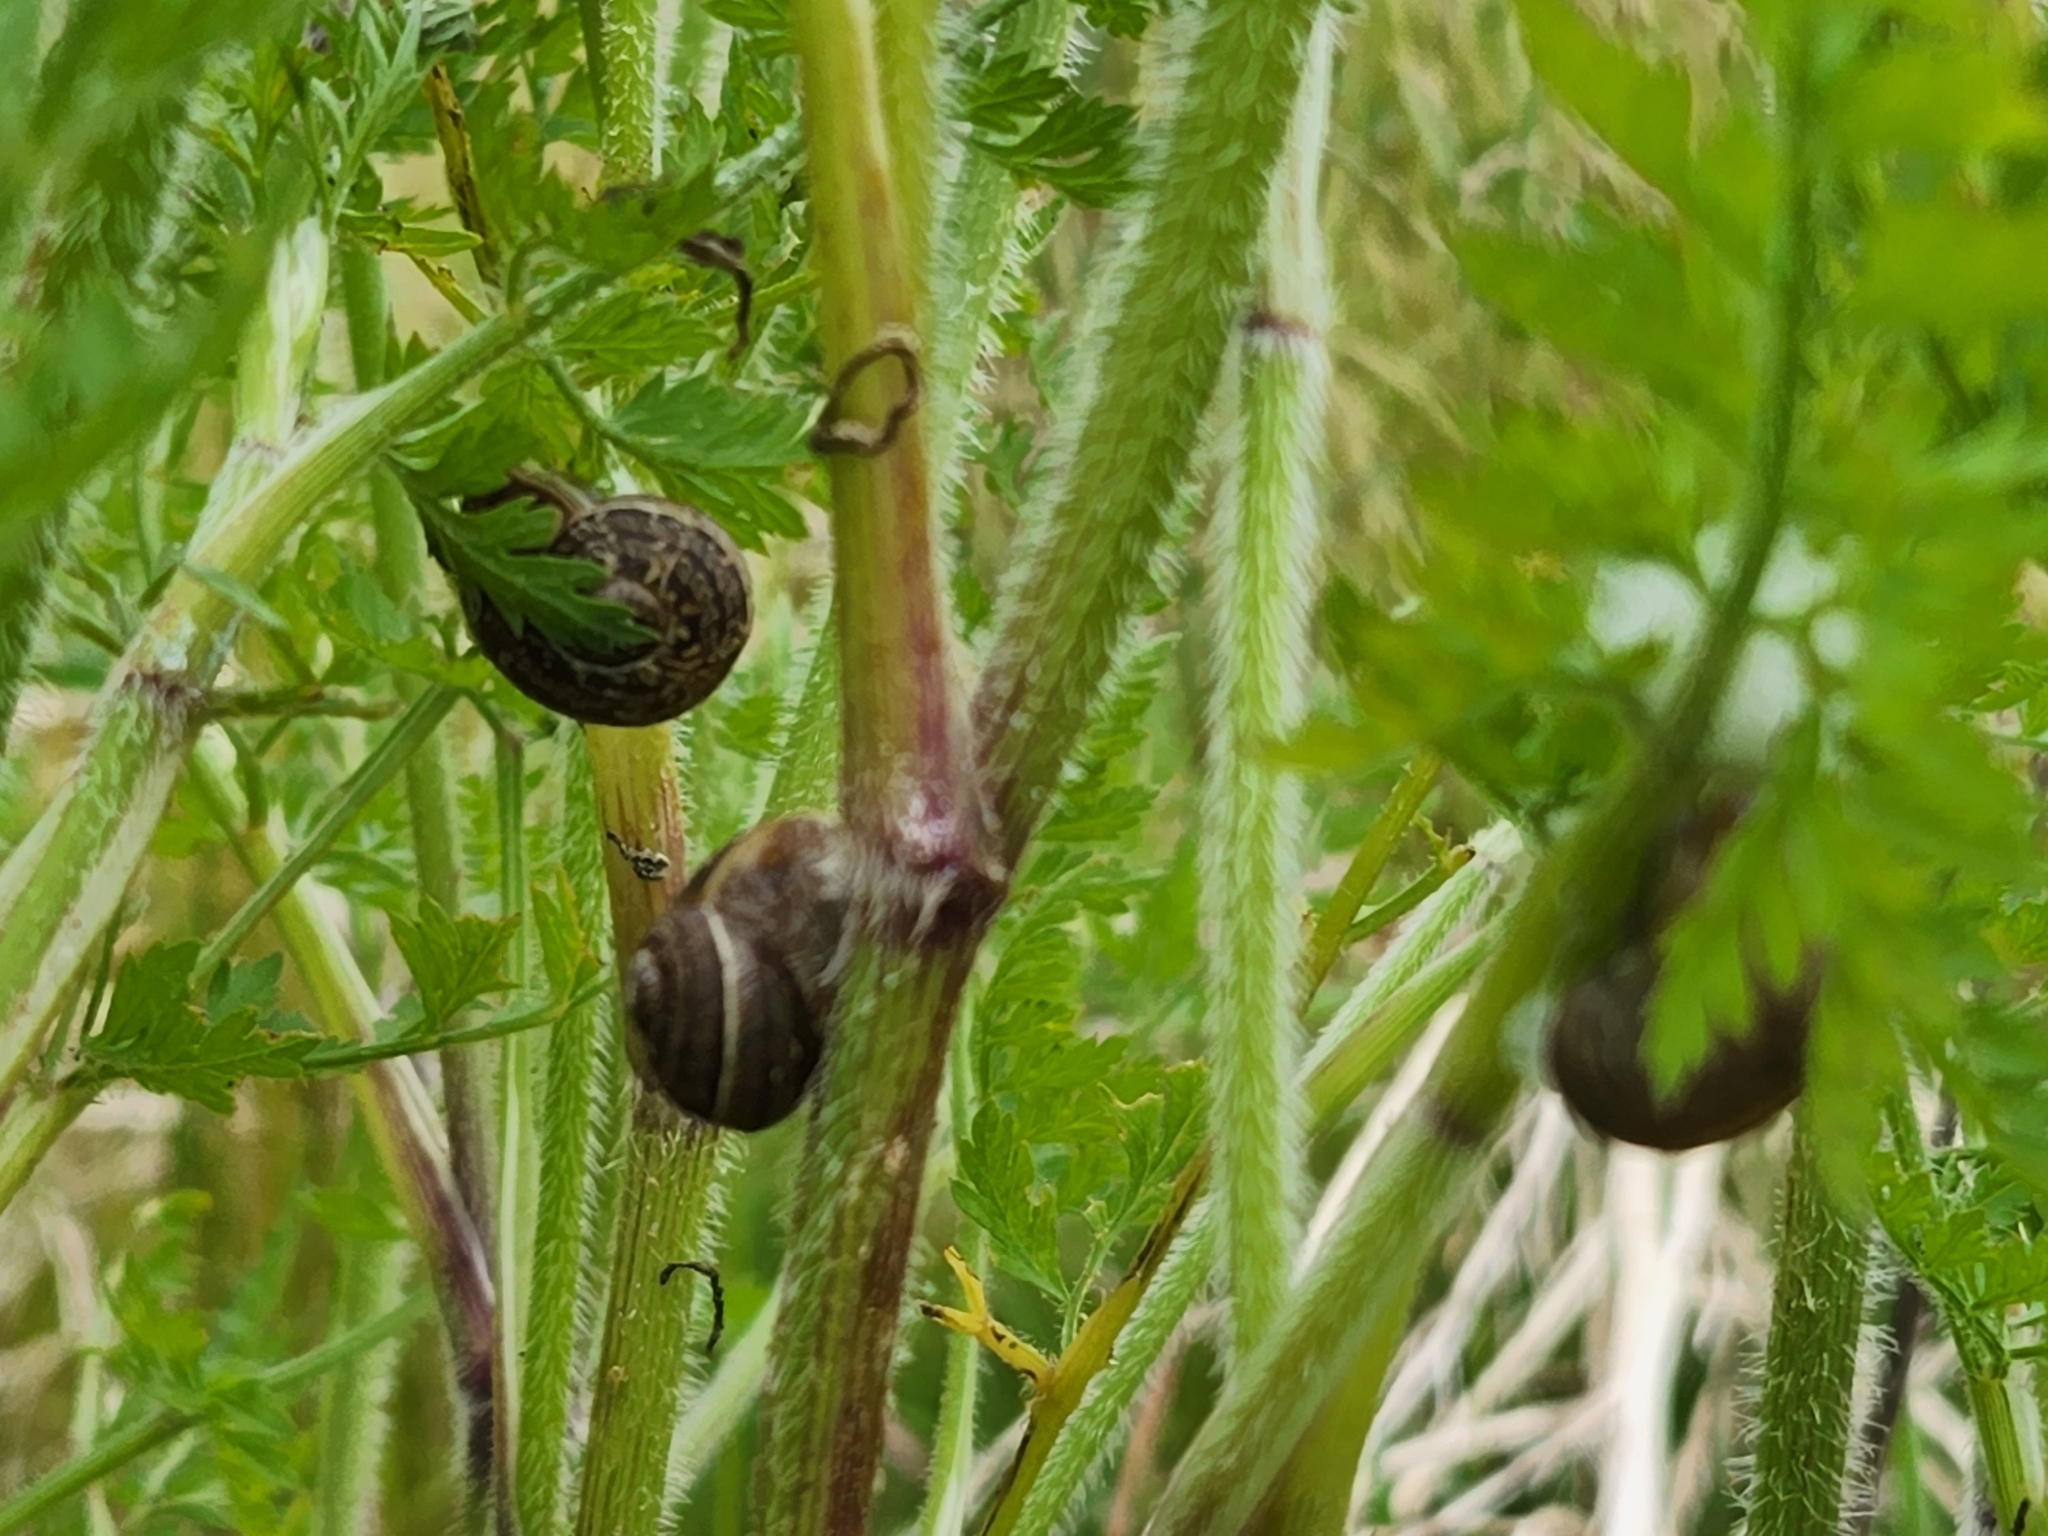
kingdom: Animalia
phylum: Mollusca
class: Gastropoda
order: Stylommatophora
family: Helicidae
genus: Cornu
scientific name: Cornu aspersum
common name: Brown garden snail
